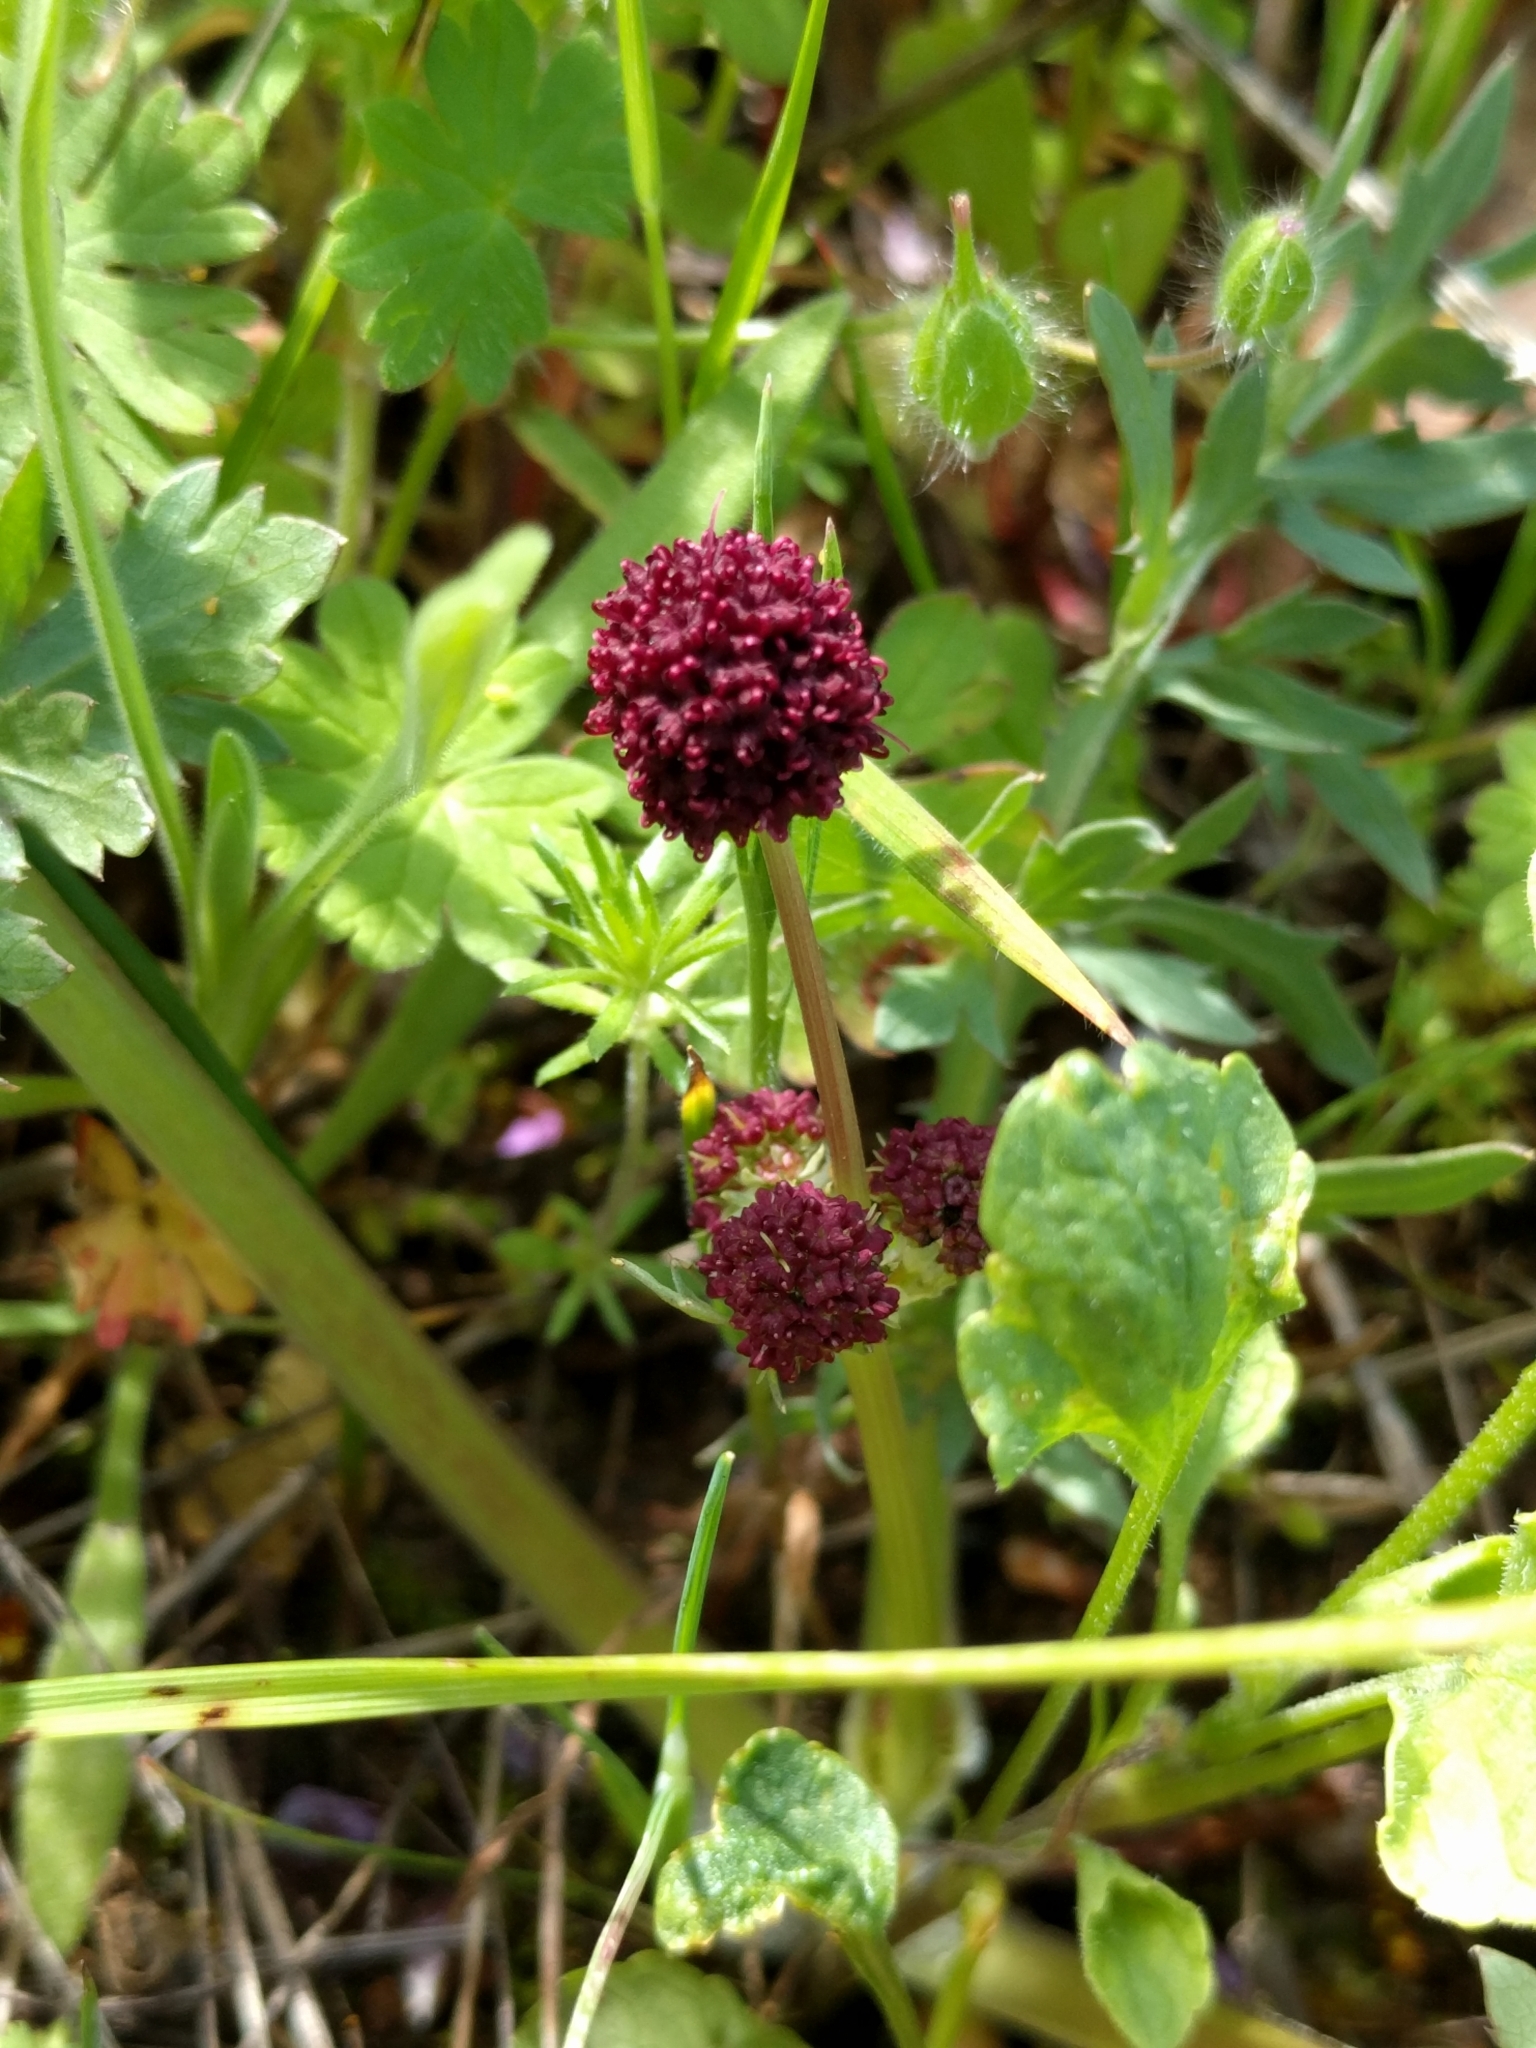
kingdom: Plantae
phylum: Tracheophyta
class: Magnoliopsida
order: Apiales
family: Apiaceae
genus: Sanicula
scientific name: Sanicula bipinnatifida
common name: Shoe-buttons
